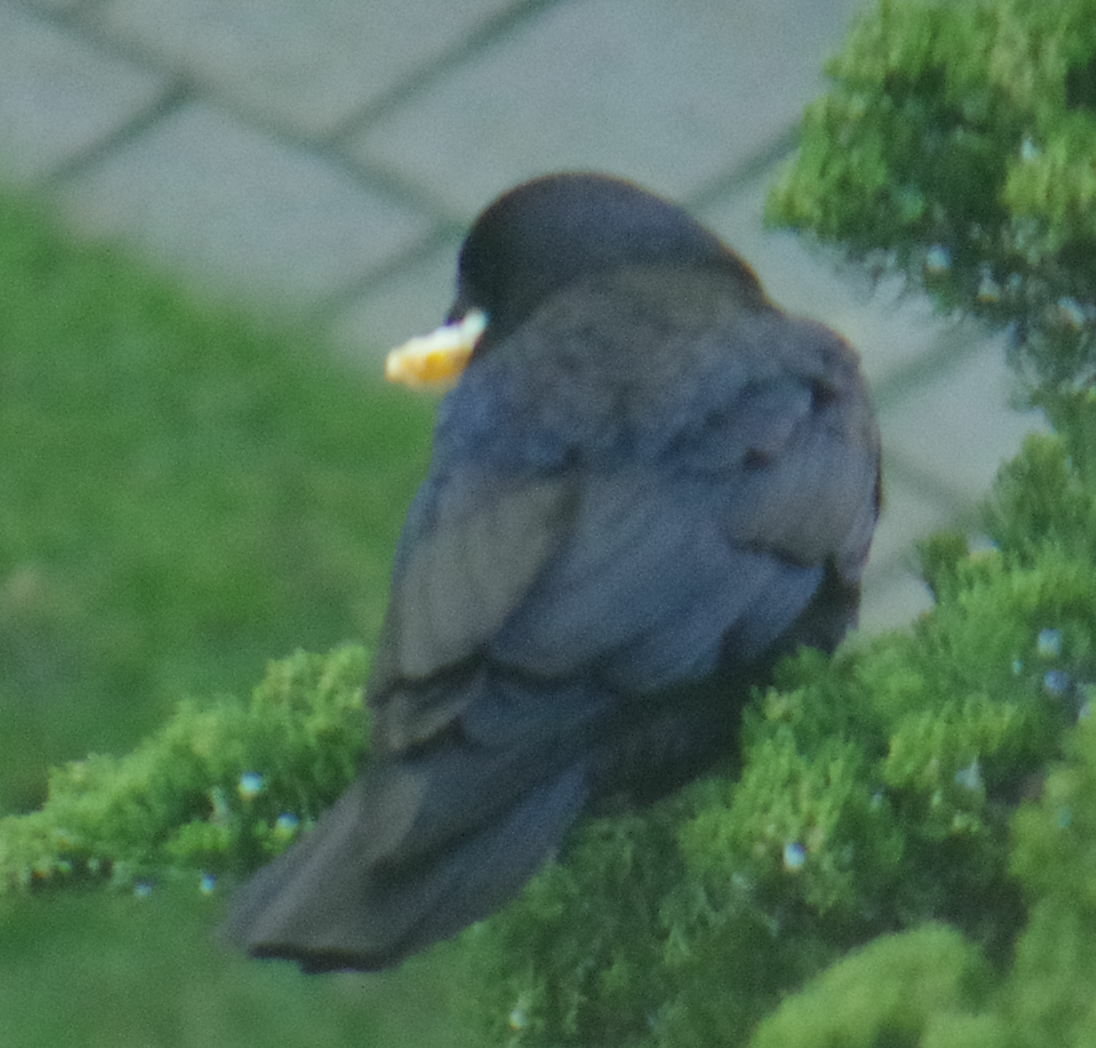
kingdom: Animalia
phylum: Chordata
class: Aves
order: Passeriformes
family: Corvidae
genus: Corvus
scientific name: Corvus brachyrhynchos
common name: American crow
